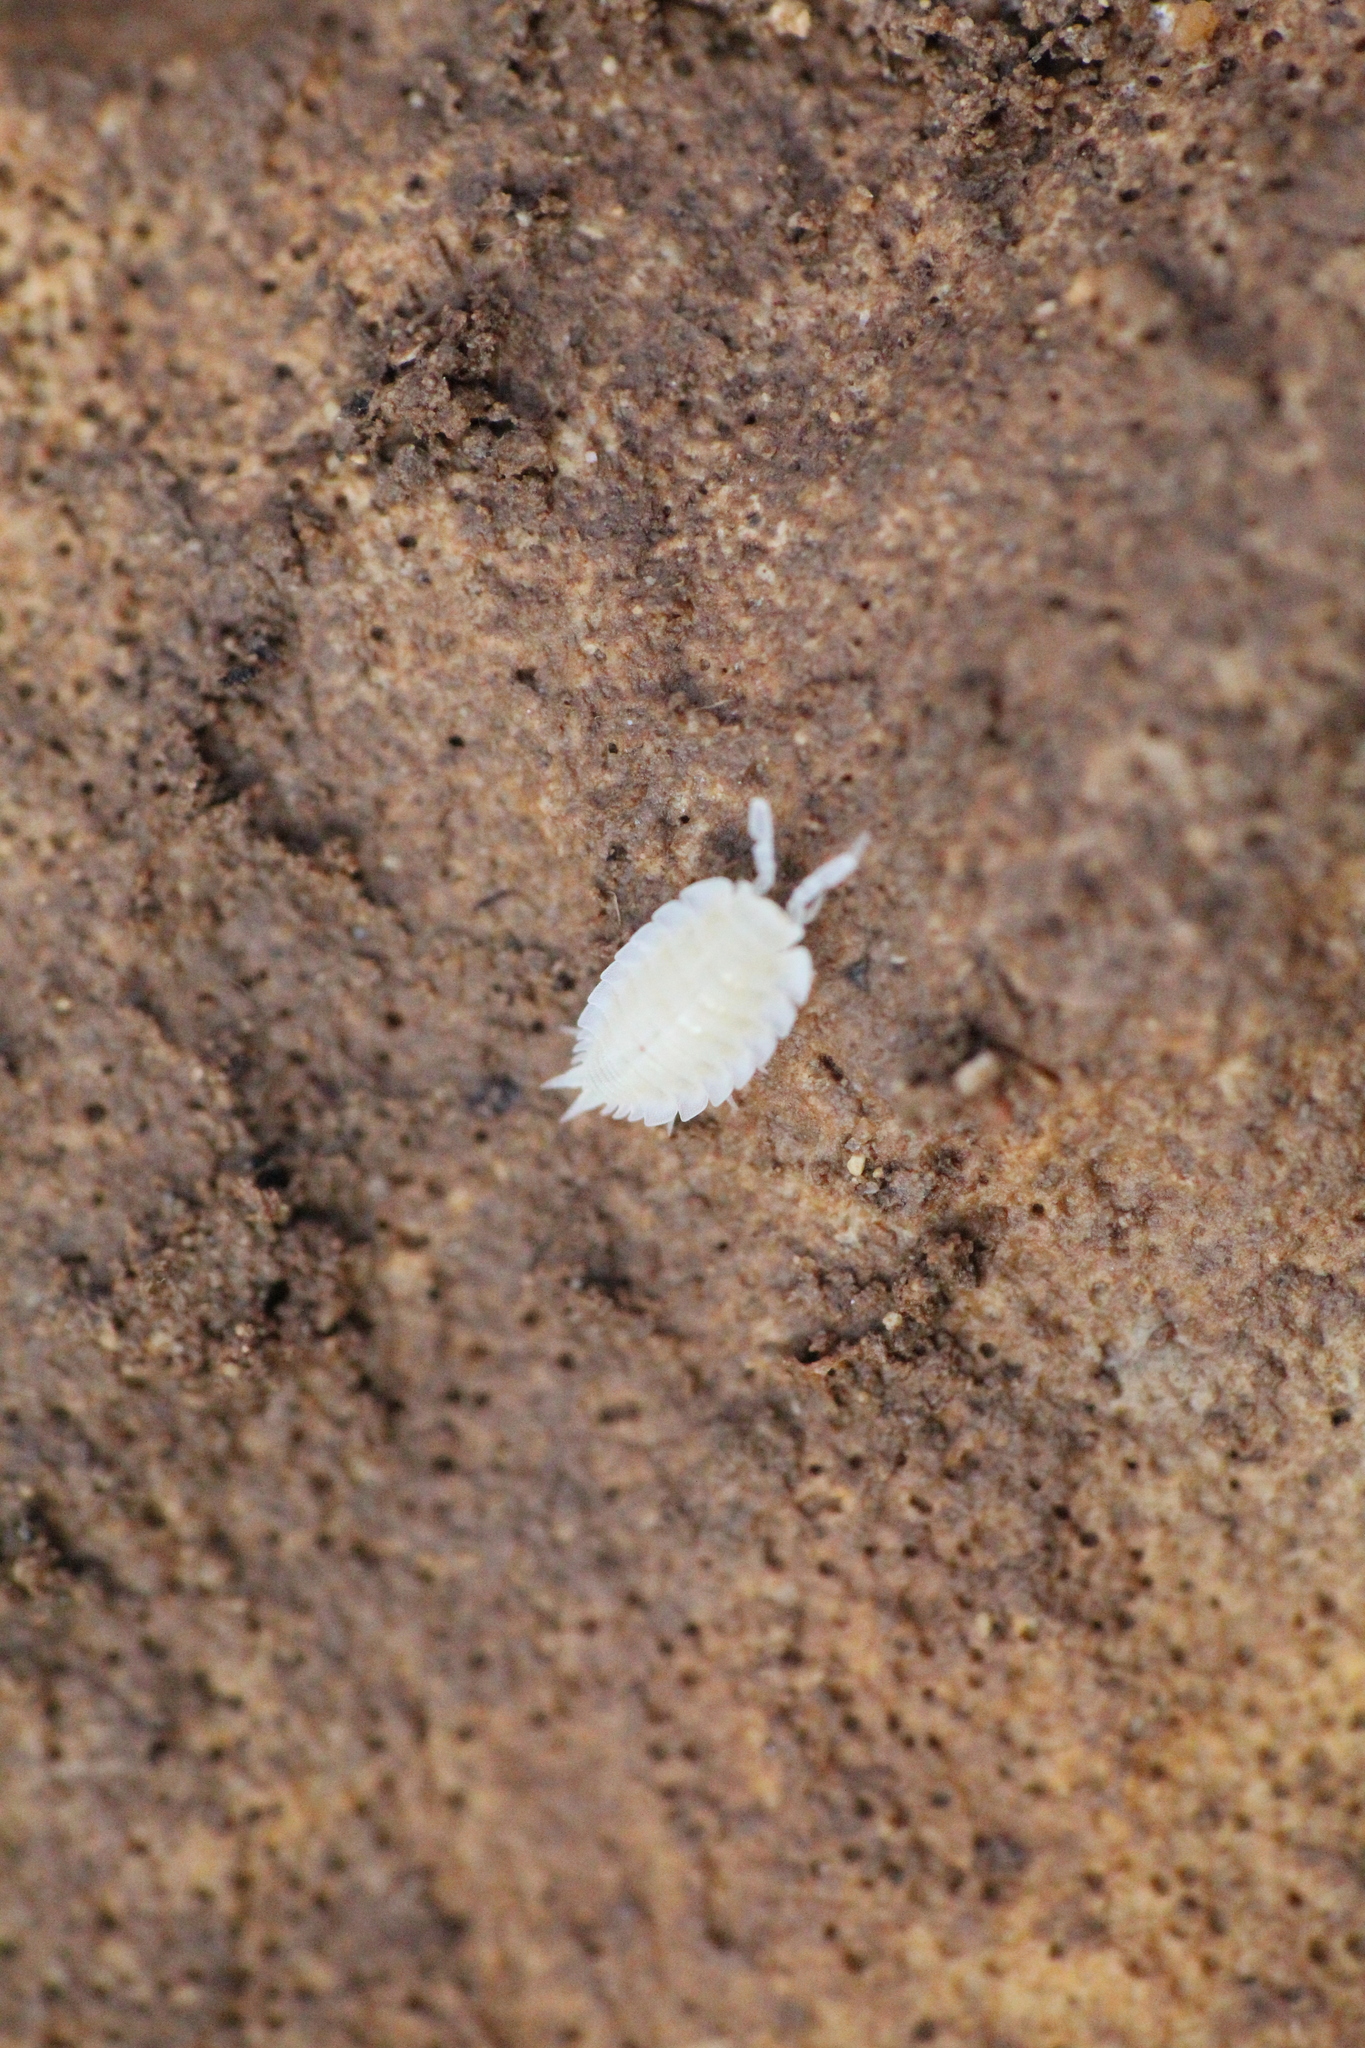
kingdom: Animalia
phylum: Arthropoda
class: Malacostraca
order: Isopoda
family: Platyarthridae
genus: Platyarthrus
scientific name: Platyarthrus hoffmannseggii
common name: Ant woodlouse
